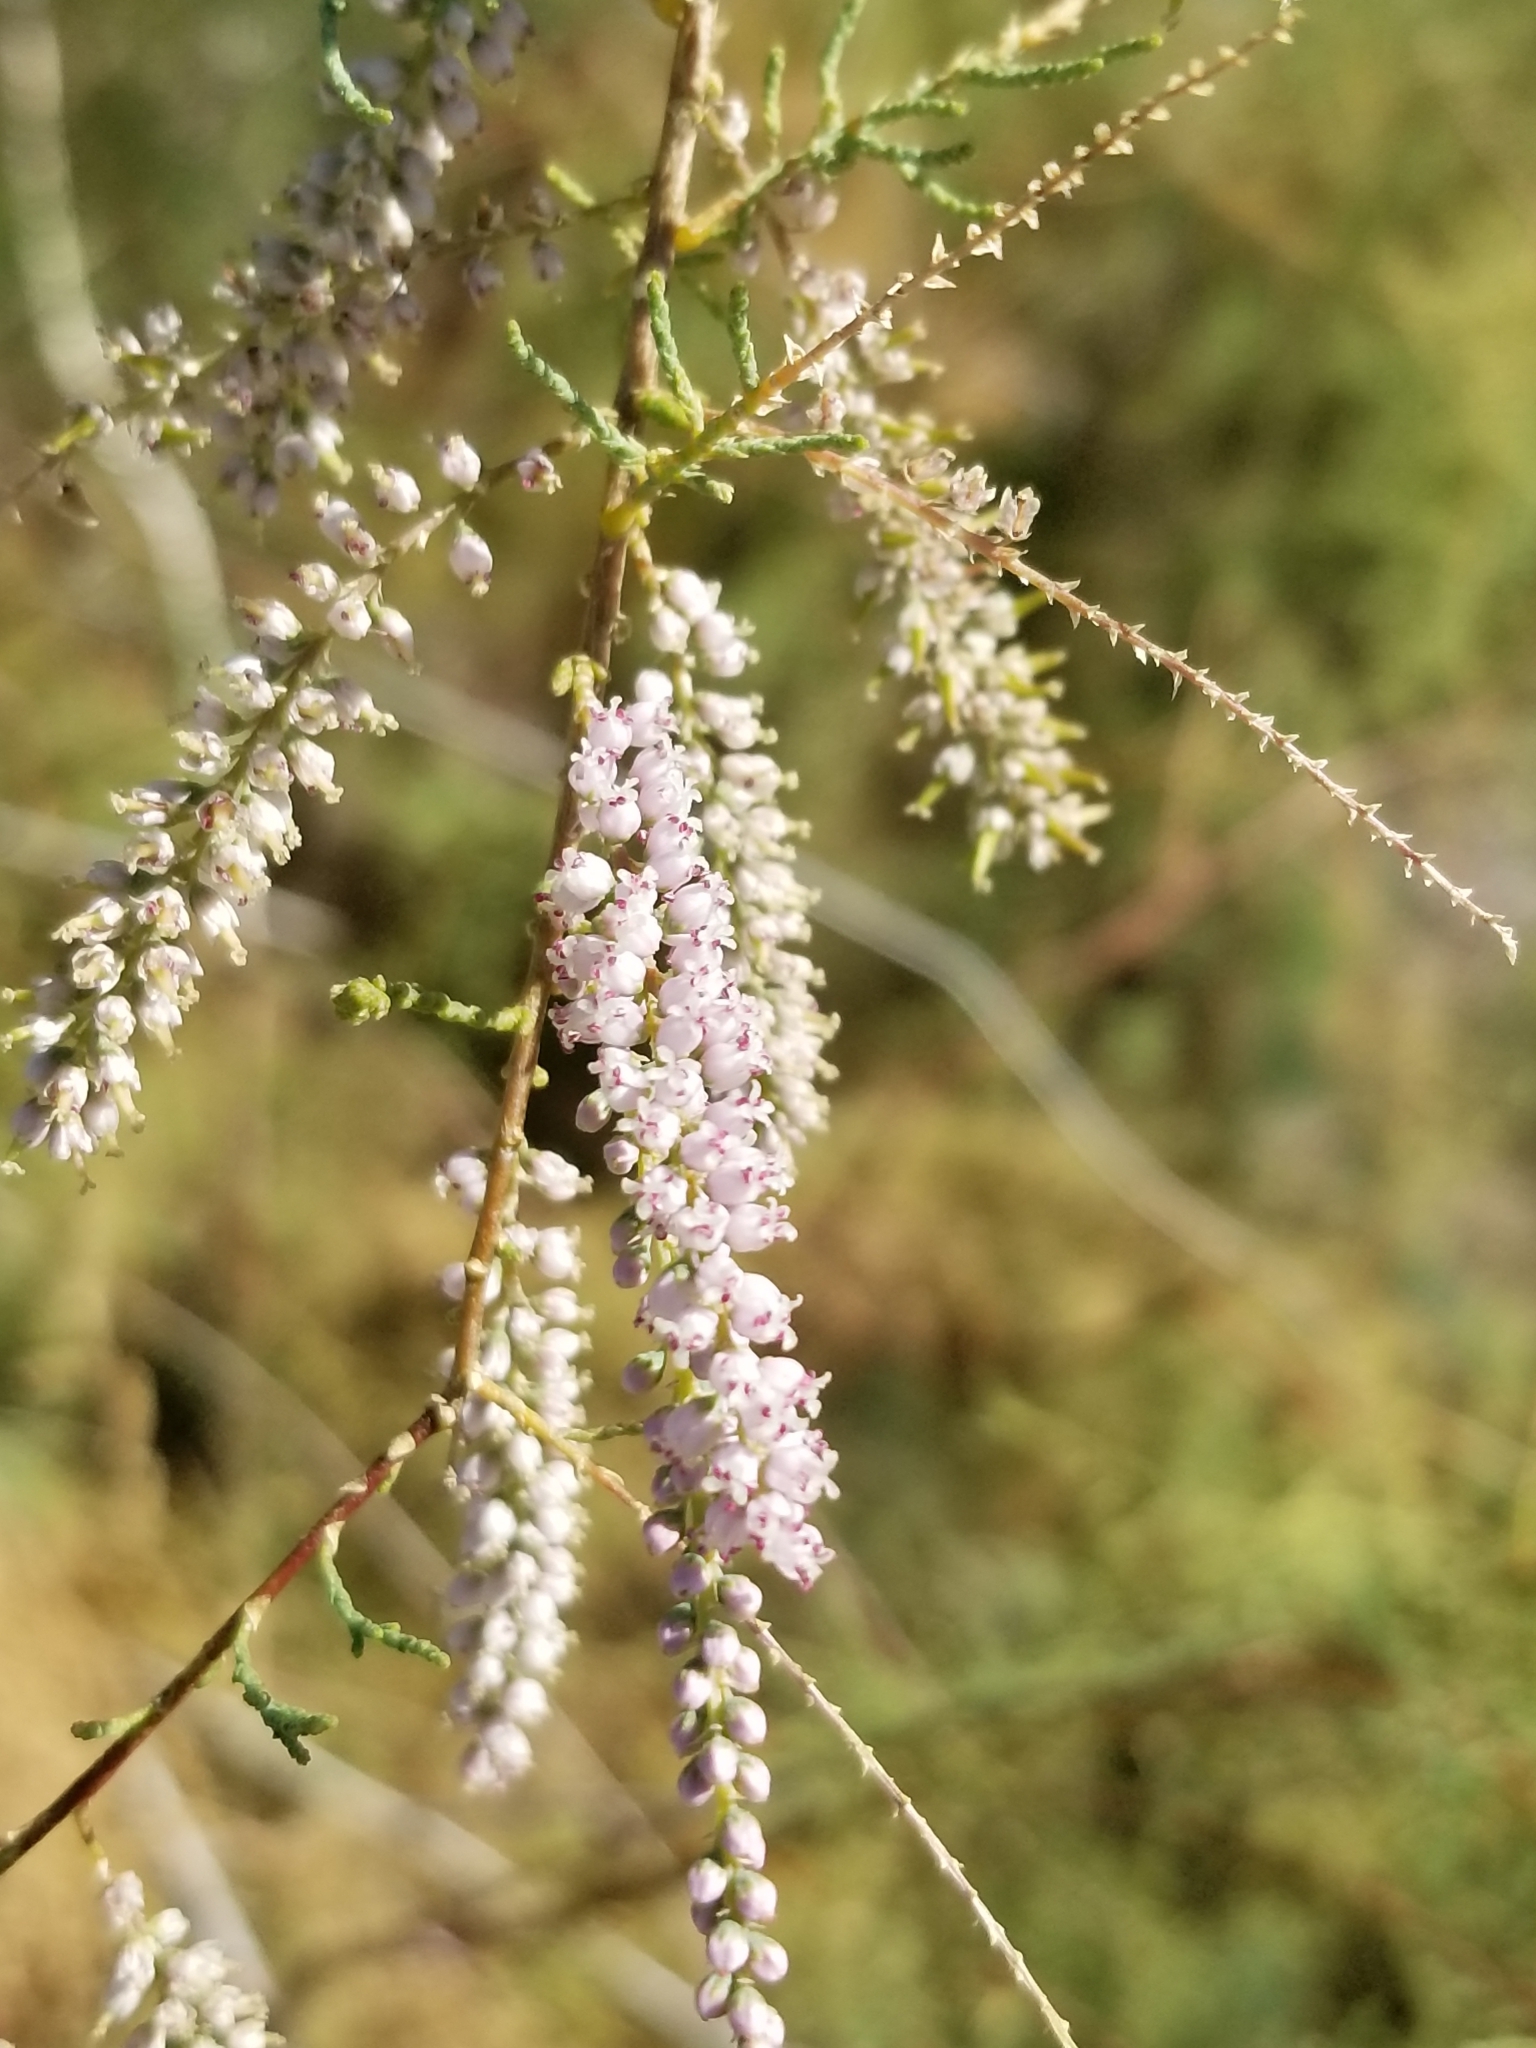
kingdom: Plantae
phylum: Tracheophyta
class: Magnoliopsida
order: Caryophyllales
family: Tamaricaceae
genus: Tamarix
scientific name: Tamarix ramosissima
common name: Pink tamarisk
